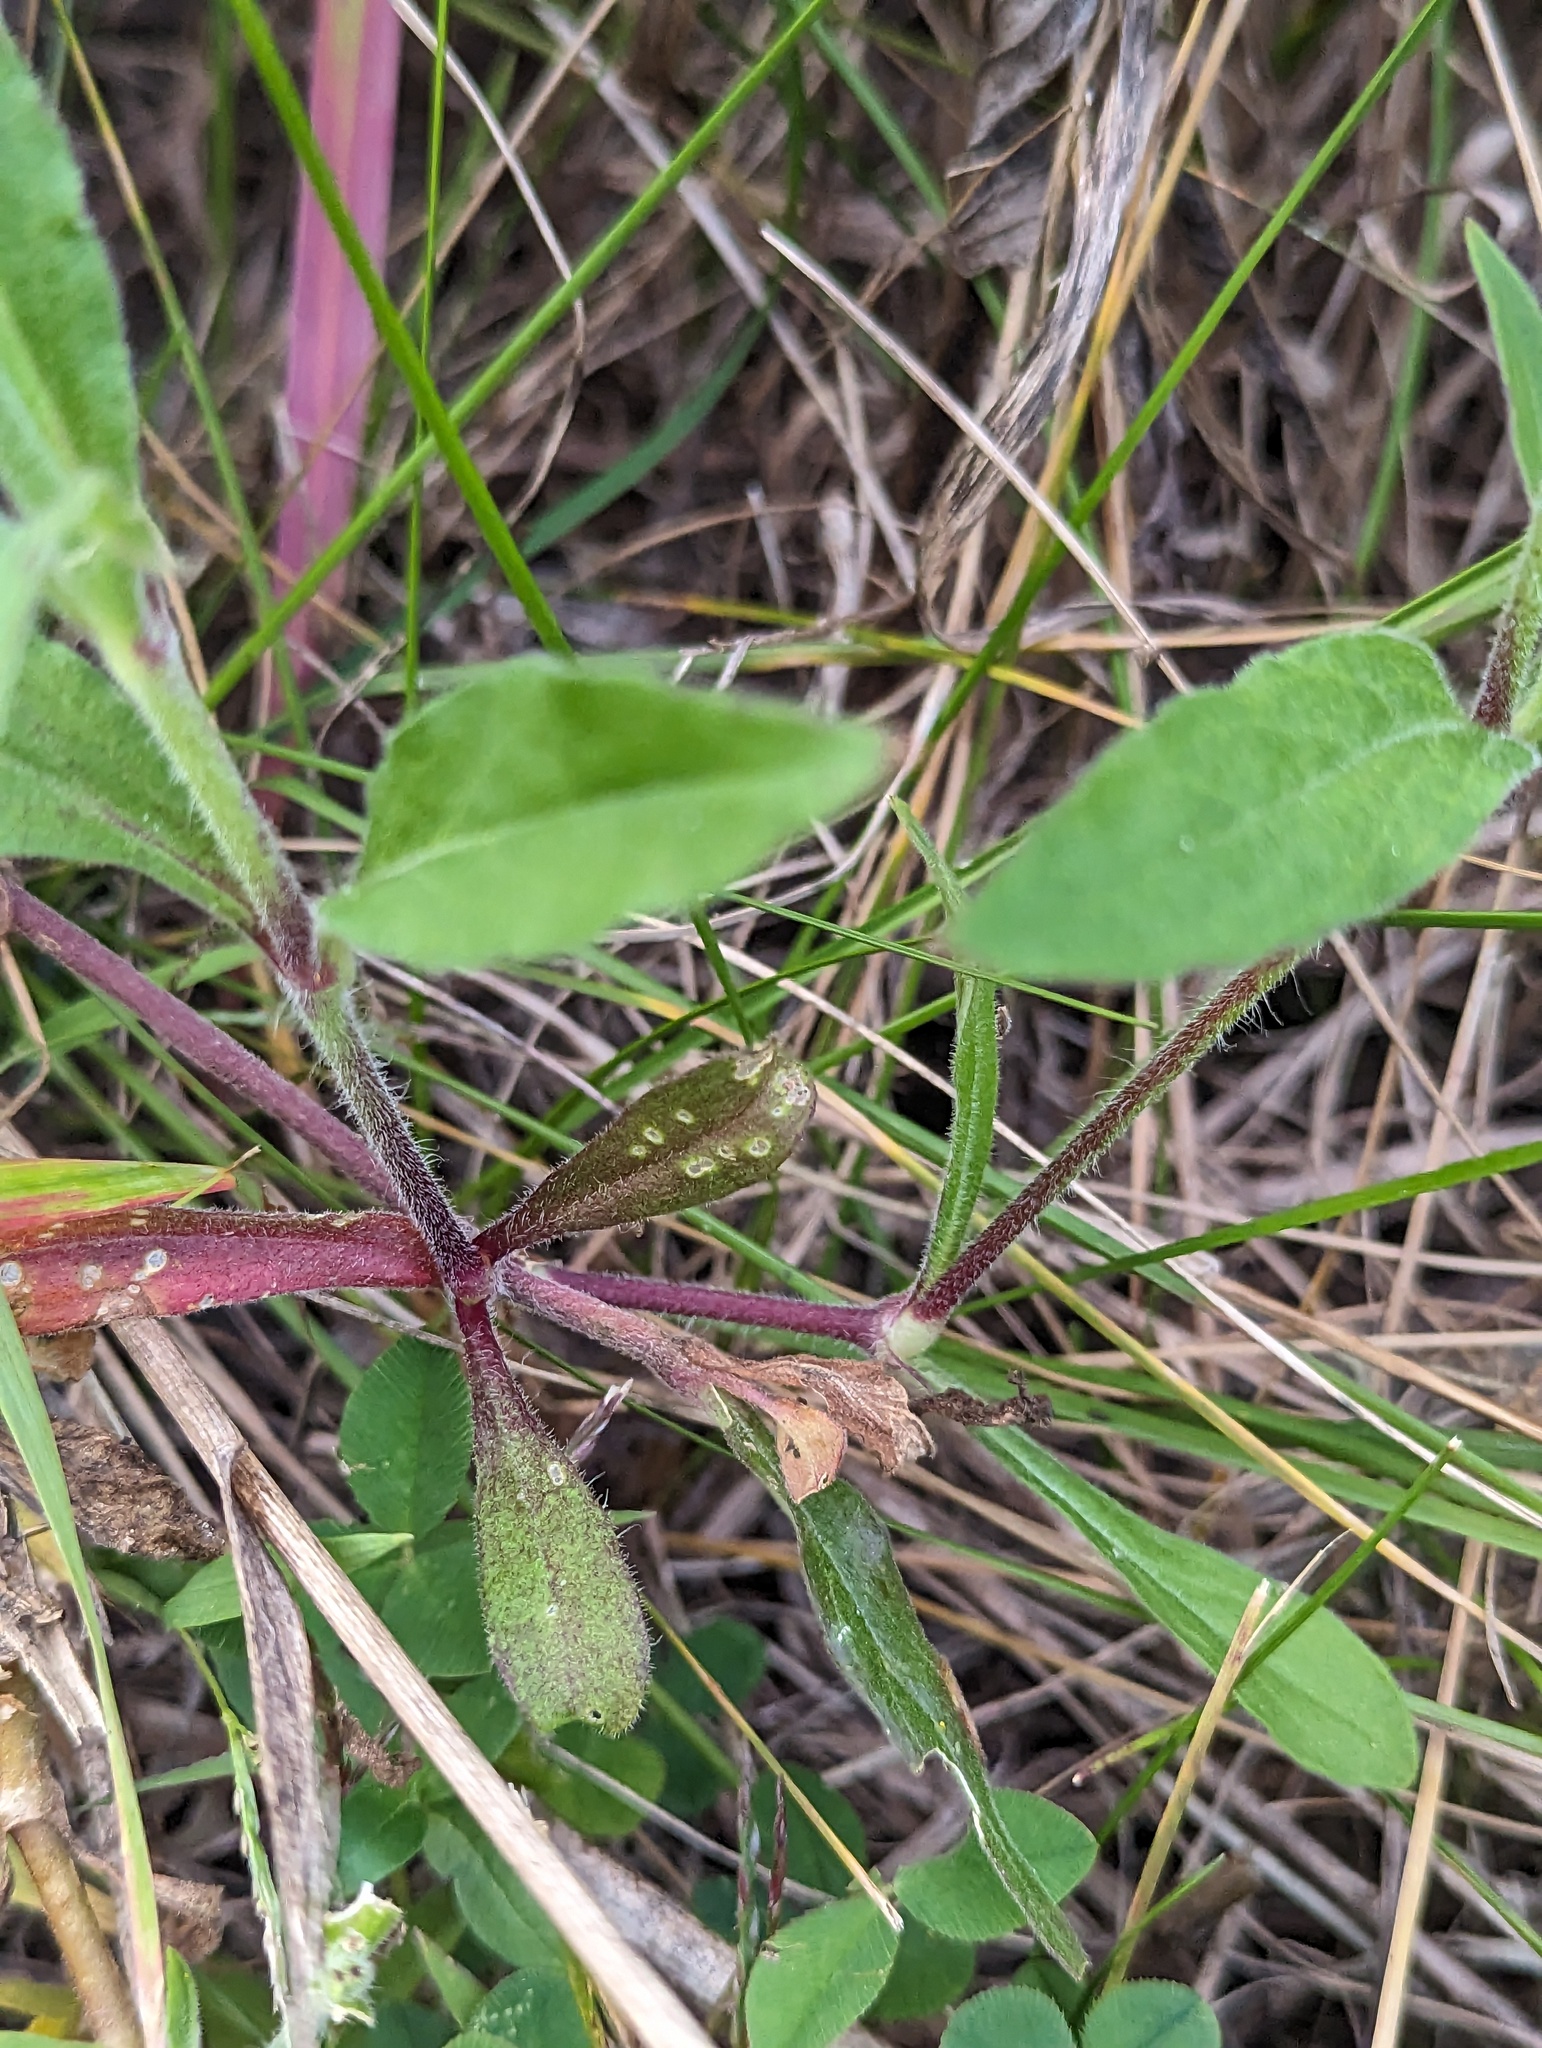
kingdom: Plantae
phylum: Tracheophyta
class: Magnoliopsida
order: Caryophyllales
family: Caryophyllaceae
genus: Silene
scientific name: Silene latifolia
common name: White campion
